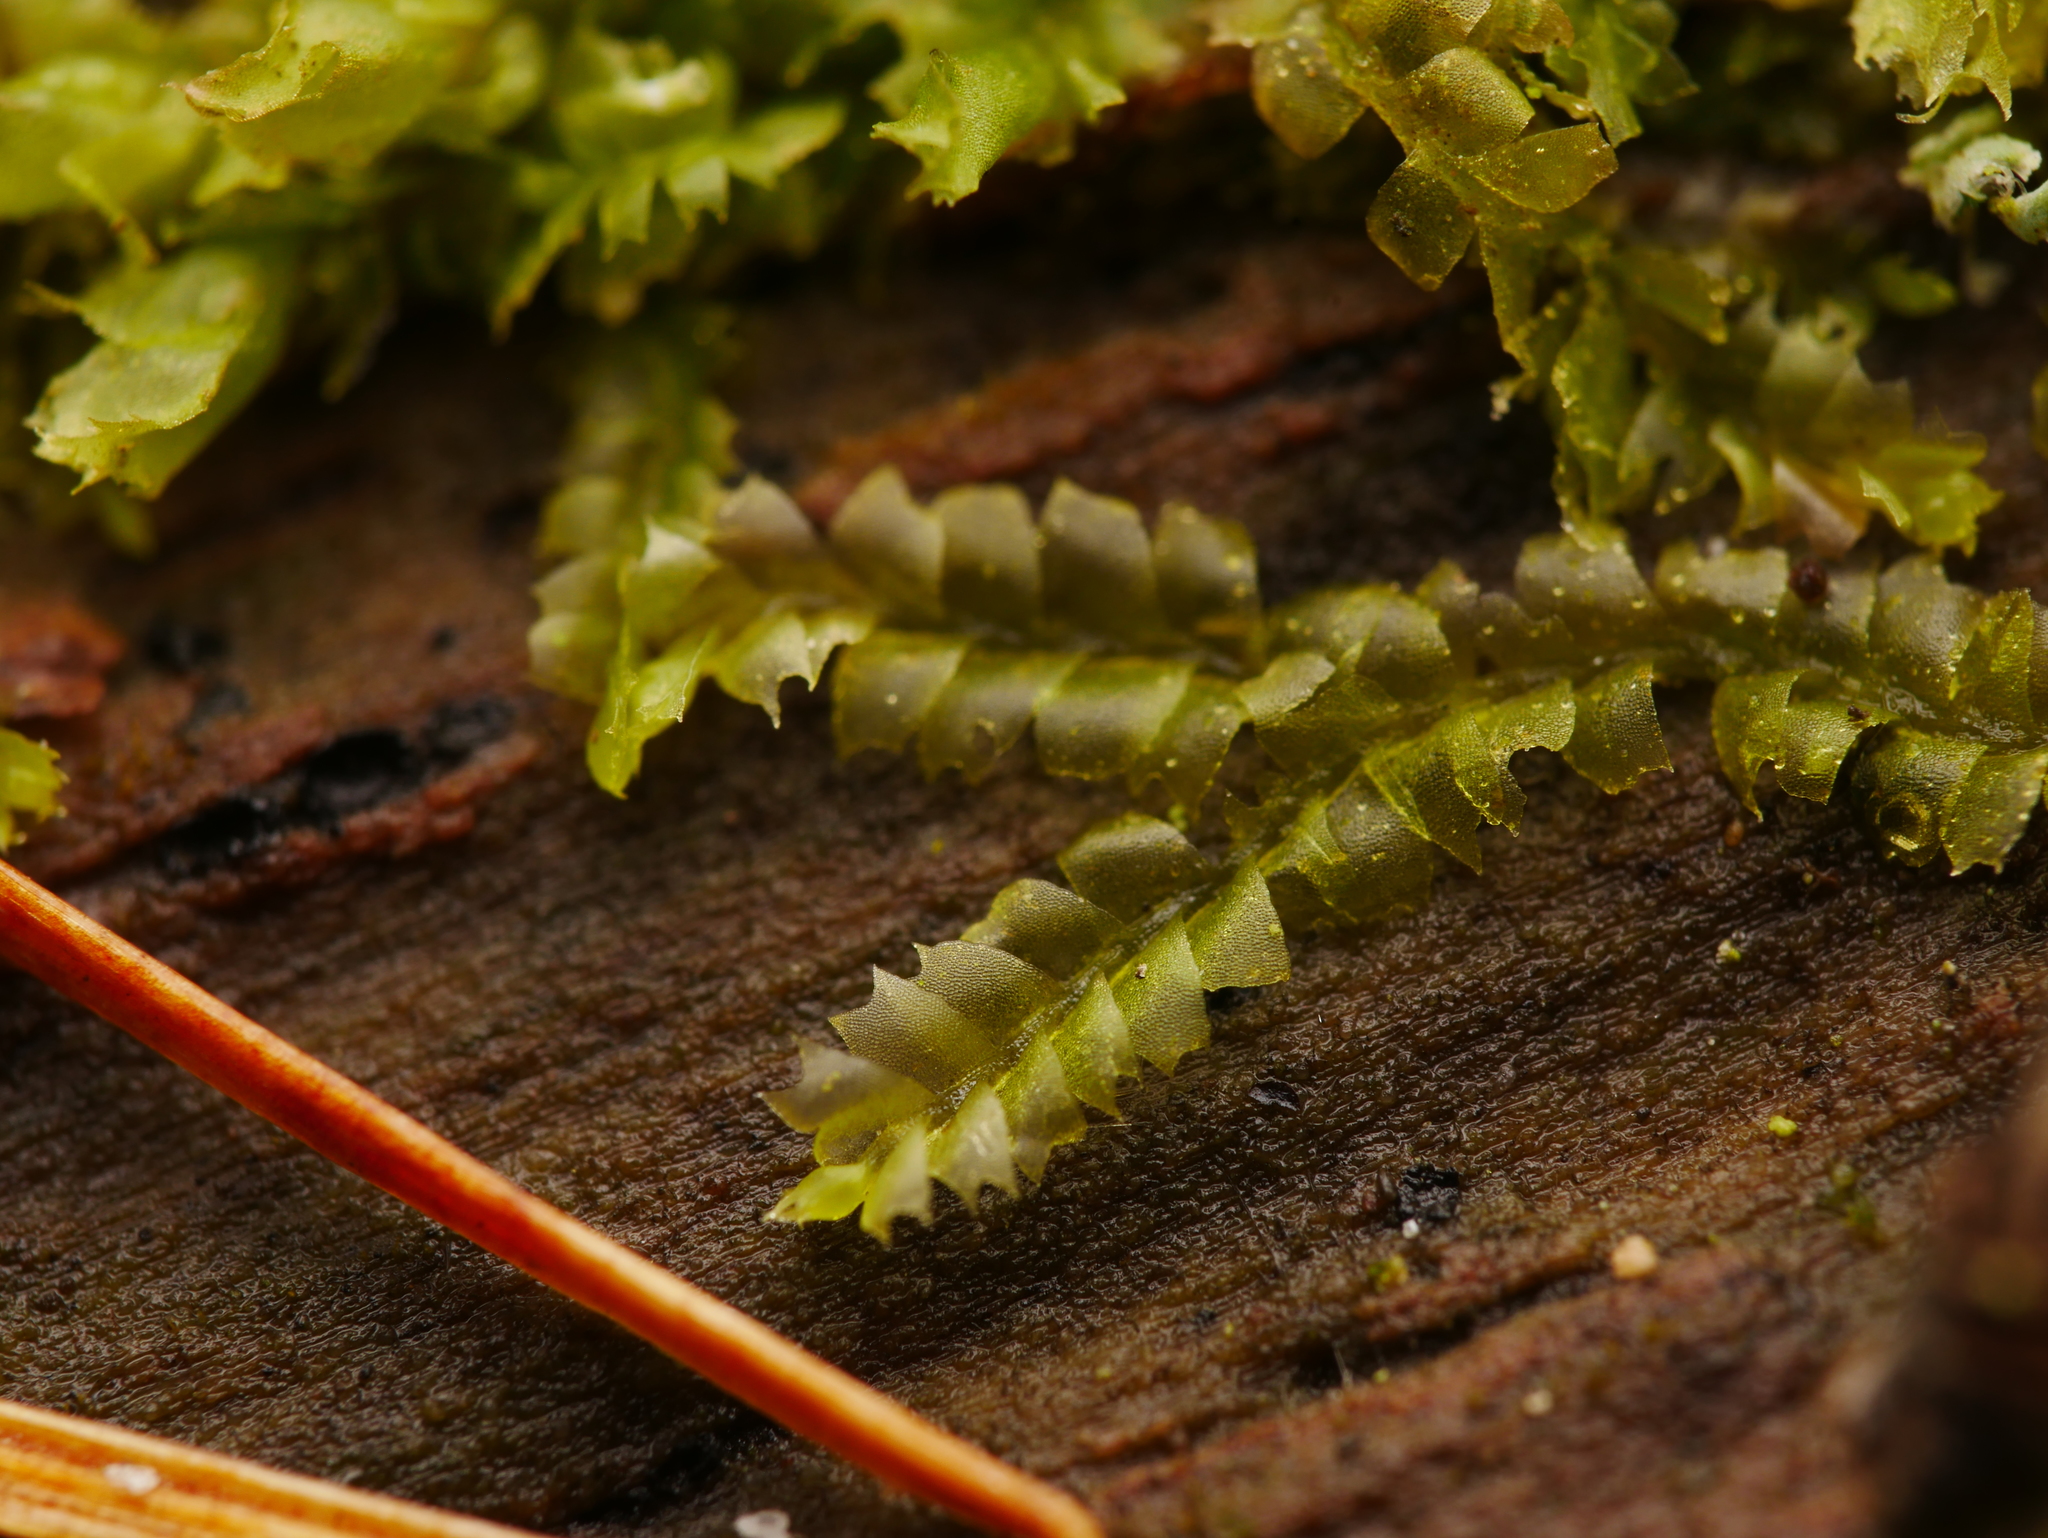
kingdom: Plantae
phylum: Marchantiophyta
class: Jungermanniopsida
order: Jungermanniales
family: Lophocoleaceae
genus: Lophocolea
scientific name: Lophocolea heterophylla
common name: Variable-leaved crestwort
